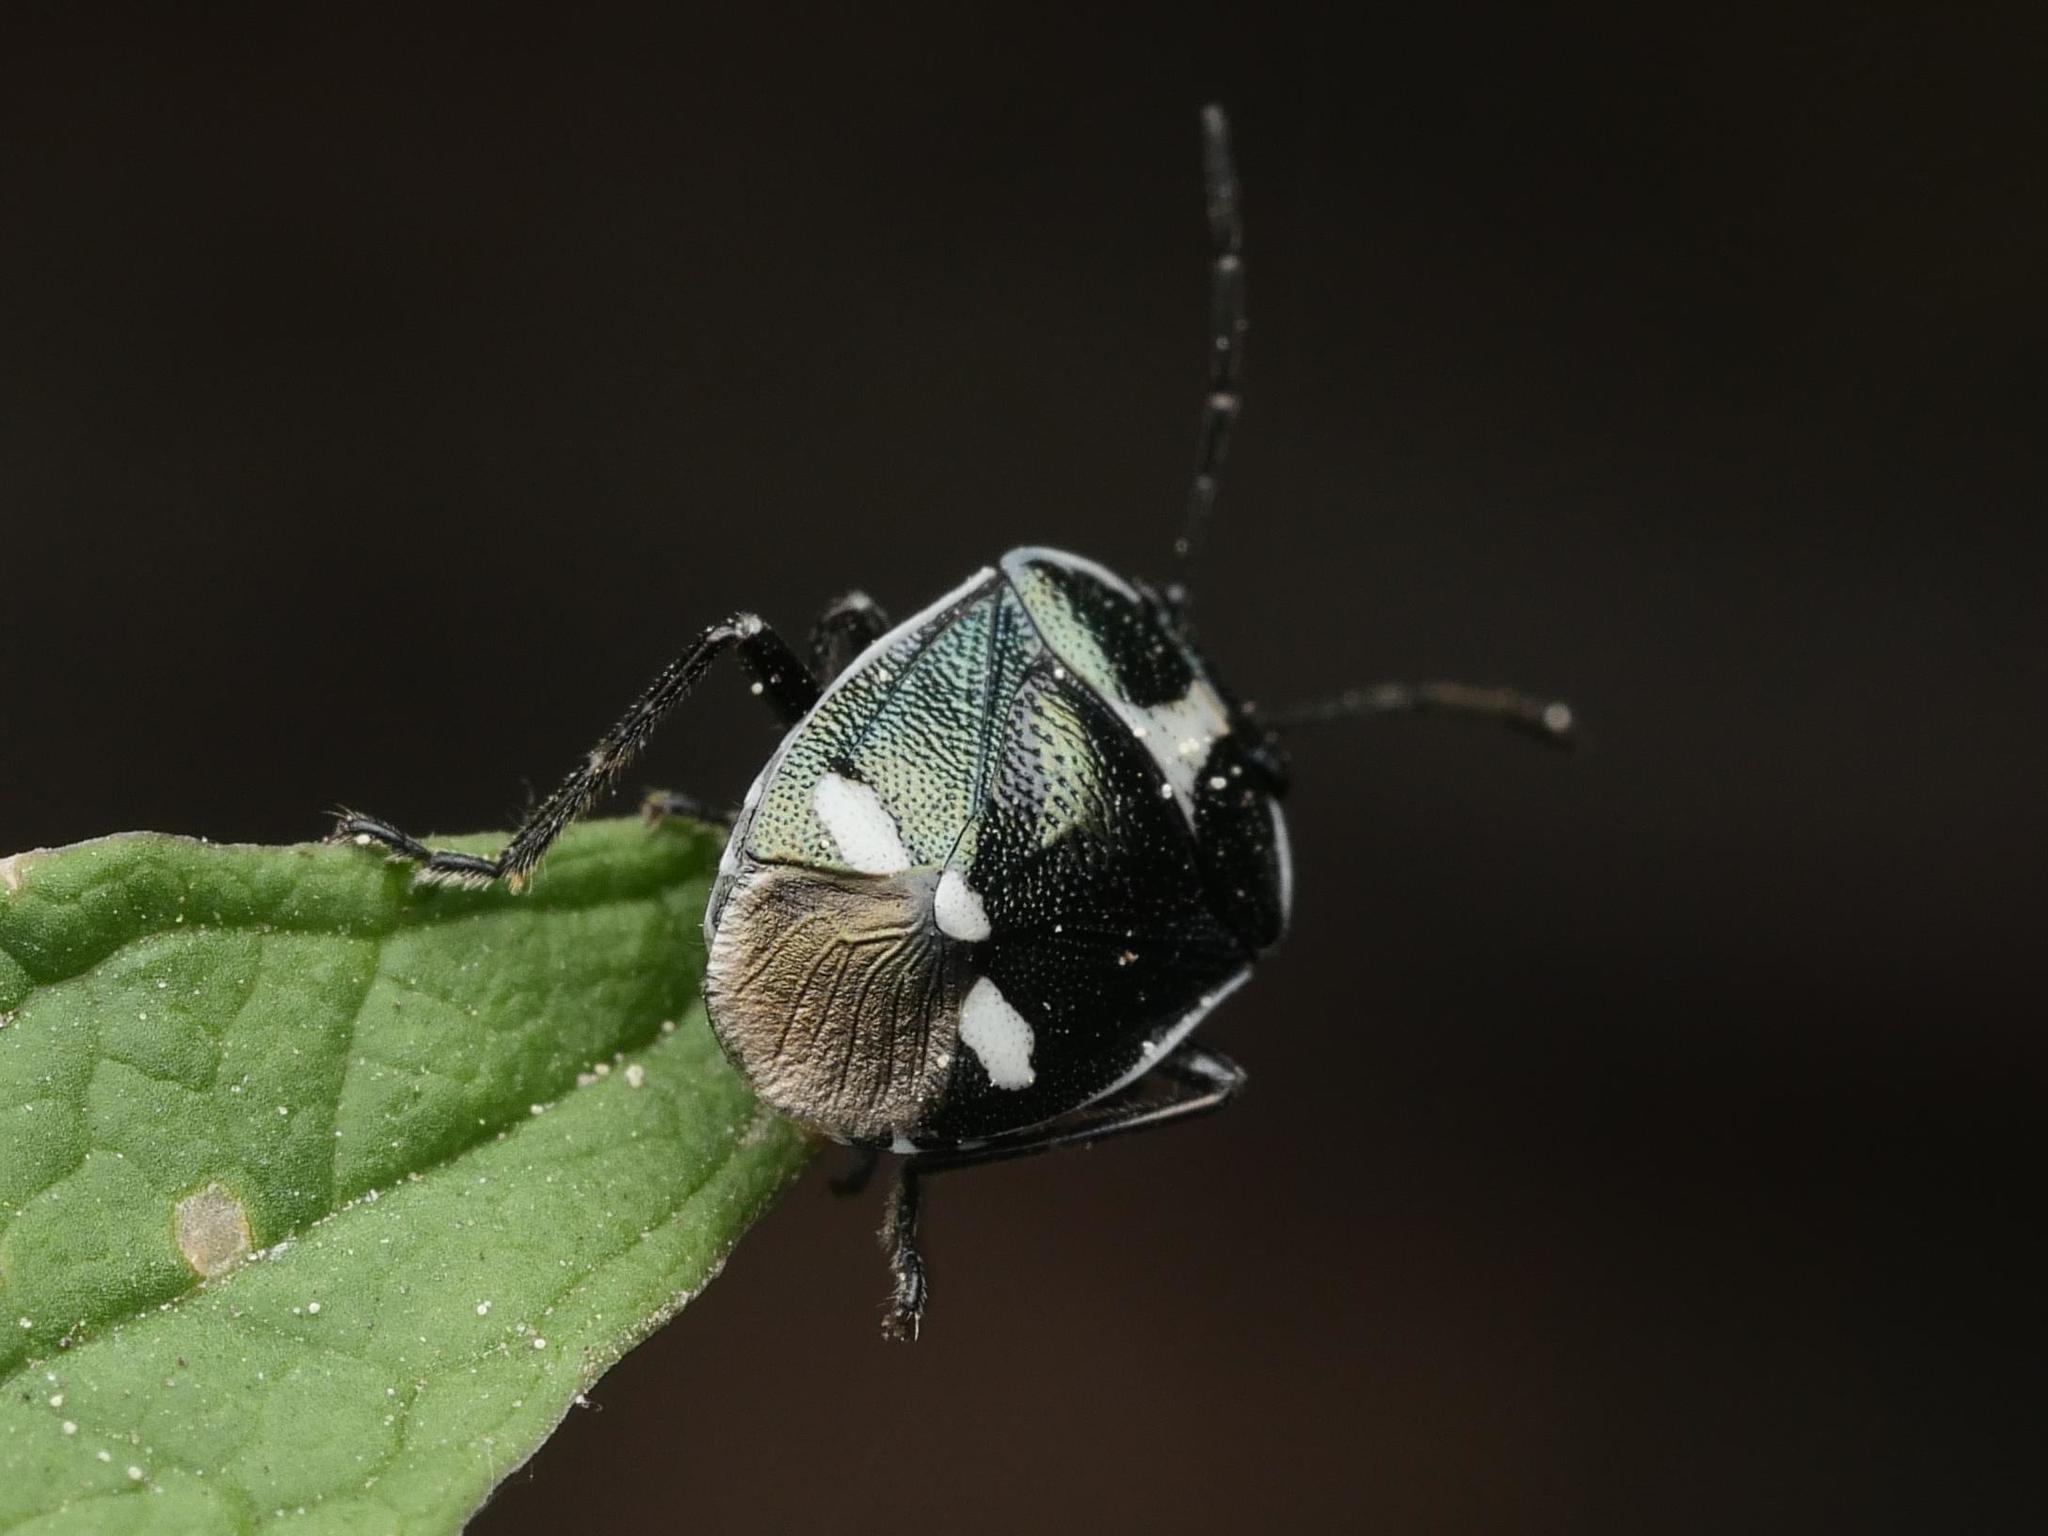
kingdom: Animalia
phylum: Arthropoda
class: Insecta
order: Hemiptera
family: Pentatomidae
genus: Eurydema
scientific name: Eurydema oleracea
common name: Cabbage bug
